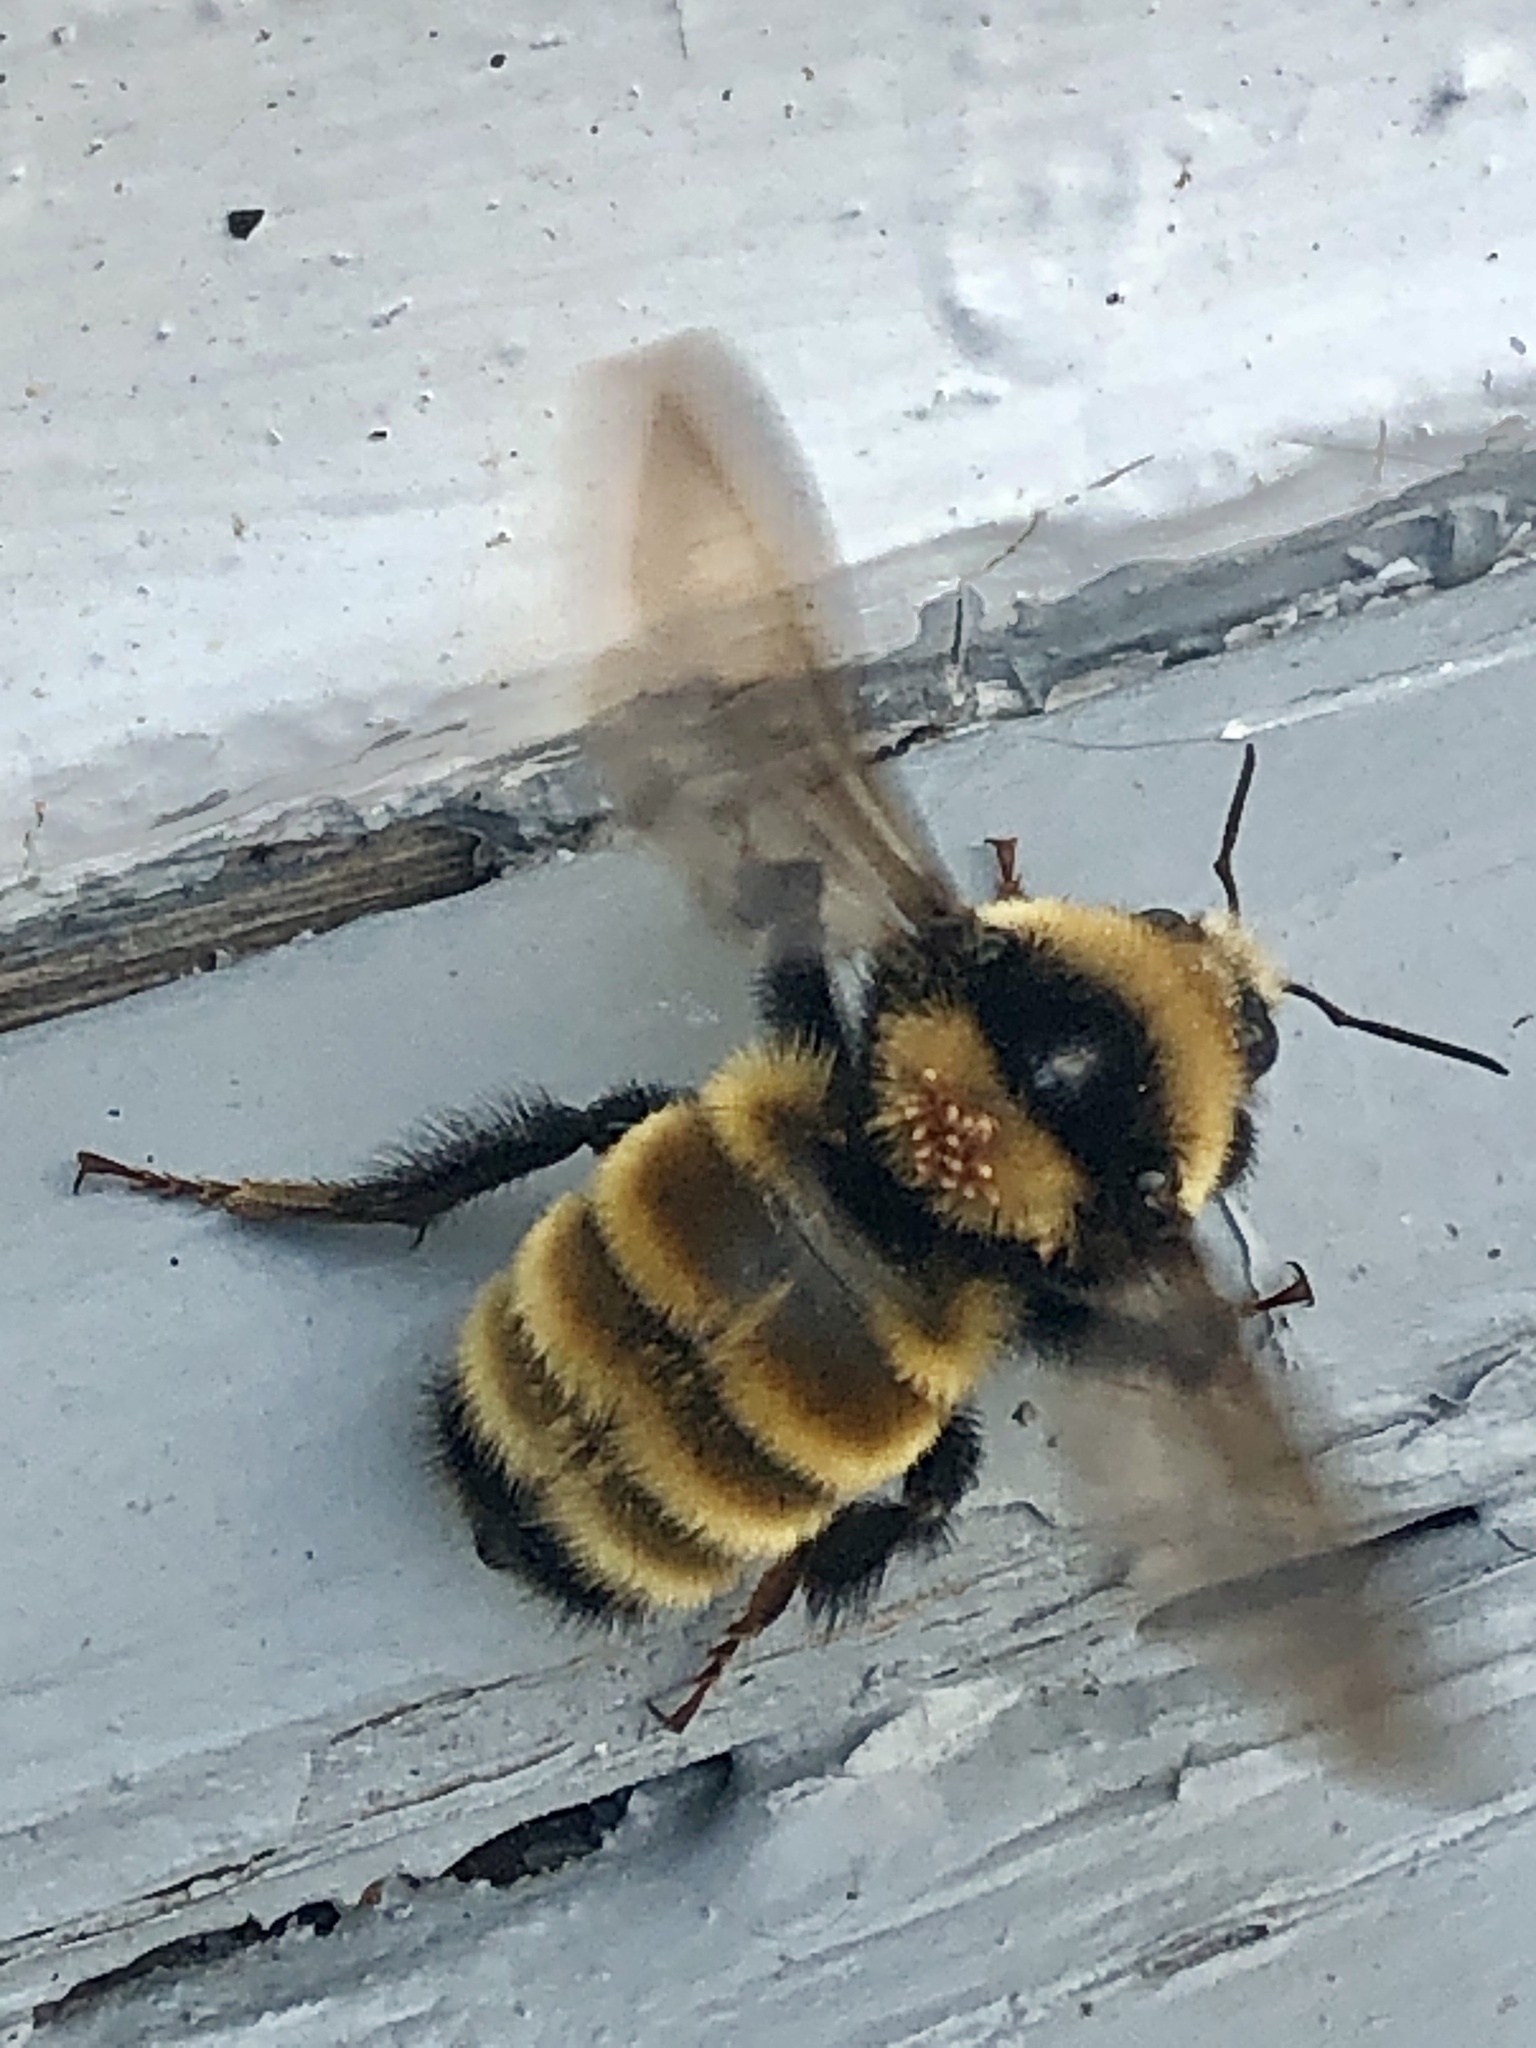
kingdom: Animalia
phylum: Arthropoda
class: Insecta
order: Hymenoptera
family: Apidae
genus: Bombus
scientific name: Bombus borealis
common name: Northern amber bumble bee
